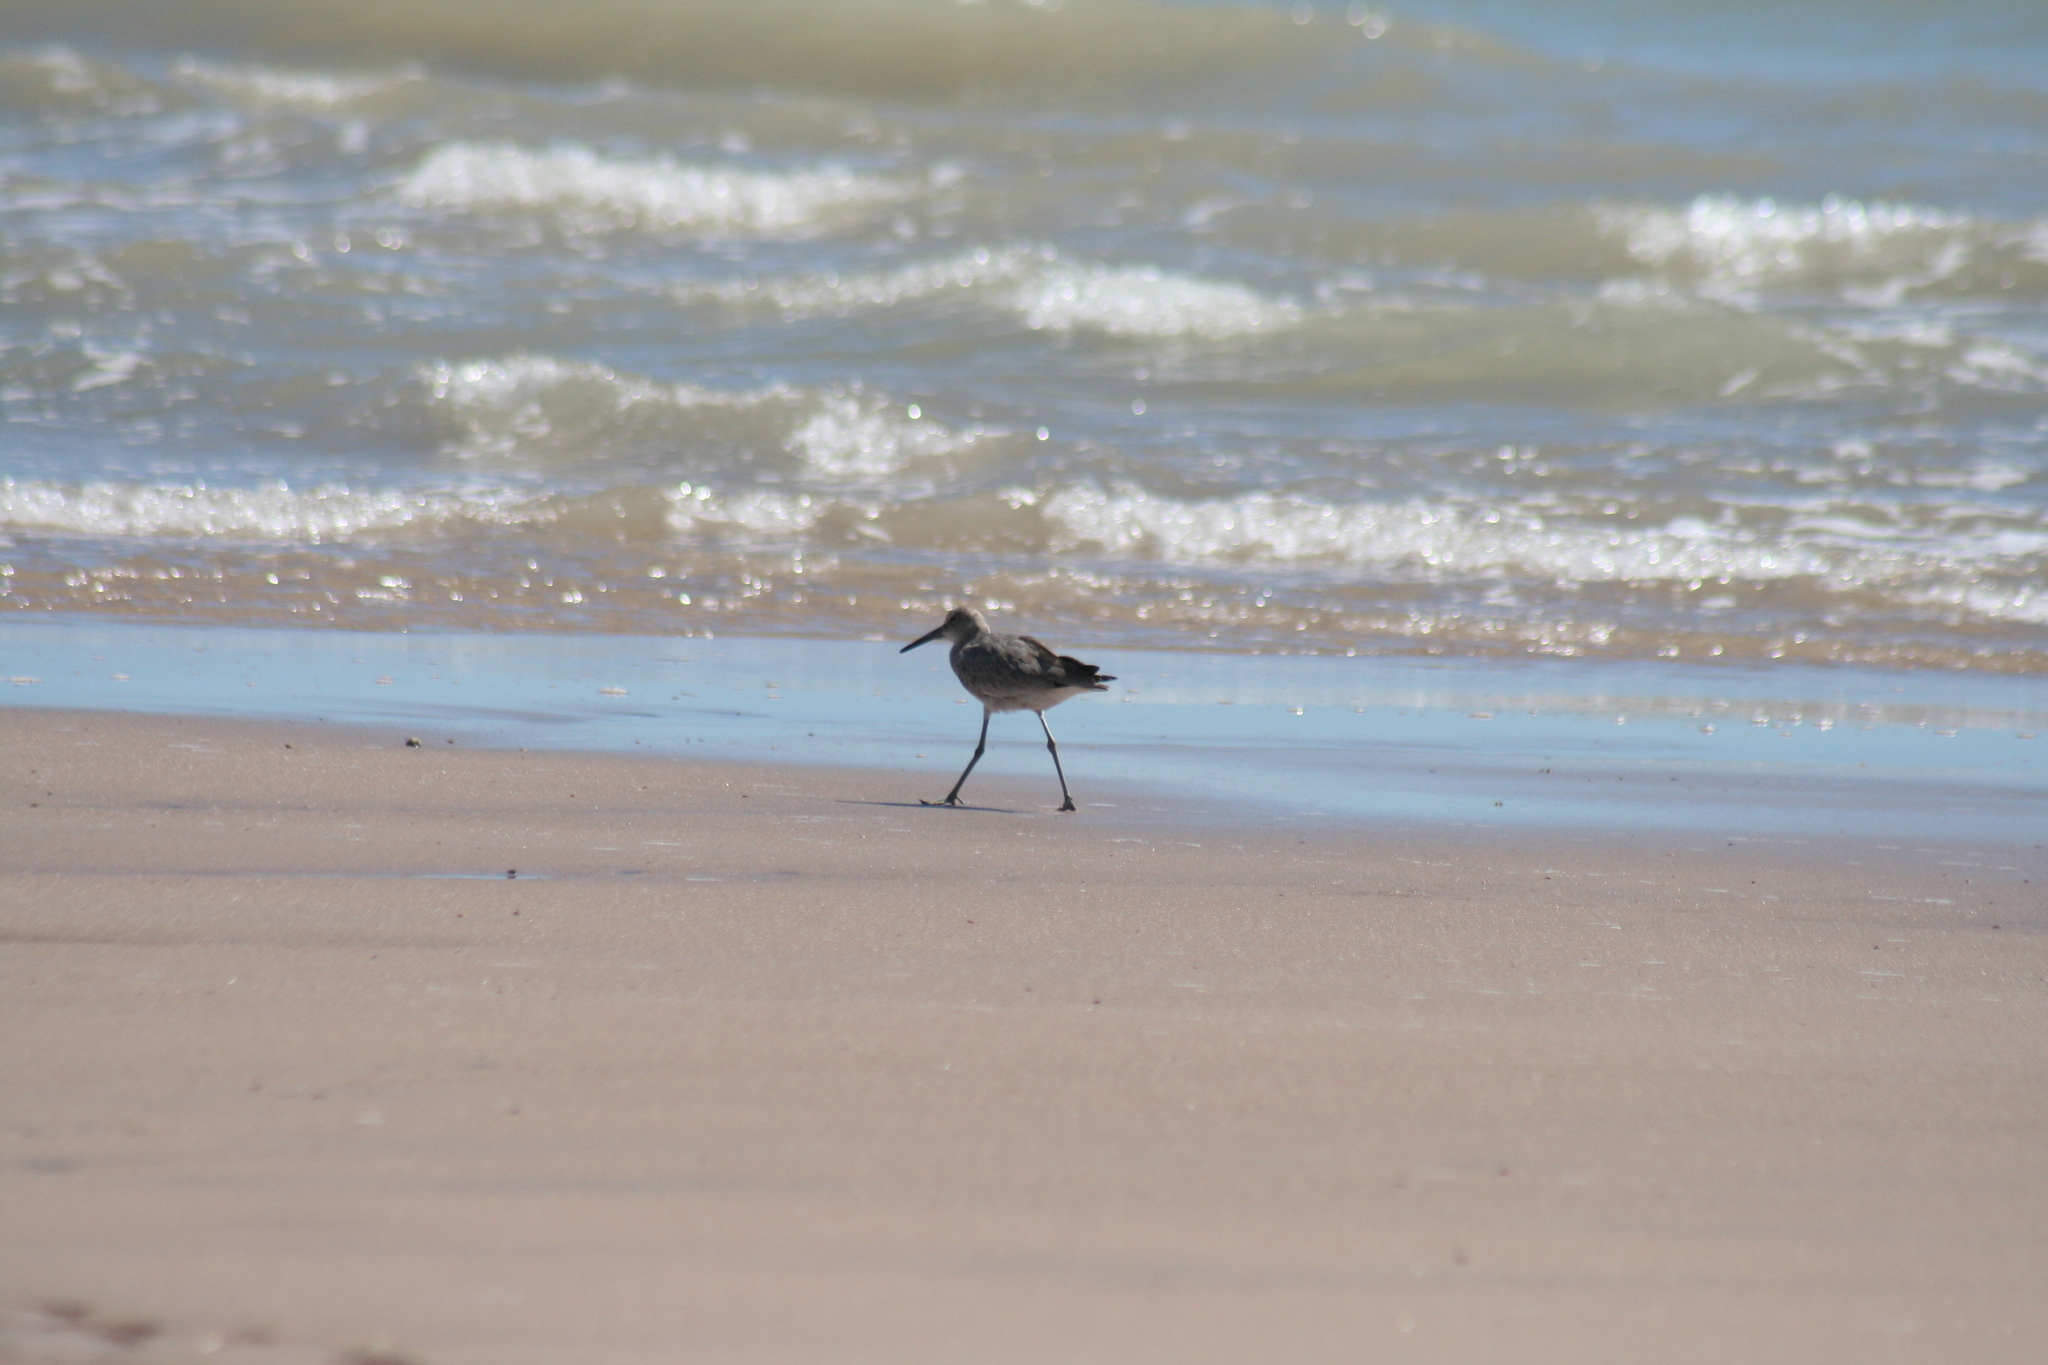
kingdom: Animalia
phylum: Chordata
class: Aves
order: Charadriiformes
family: Scolopacidae
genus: Tringa
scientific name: Tringa semipalmata
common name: Willet
